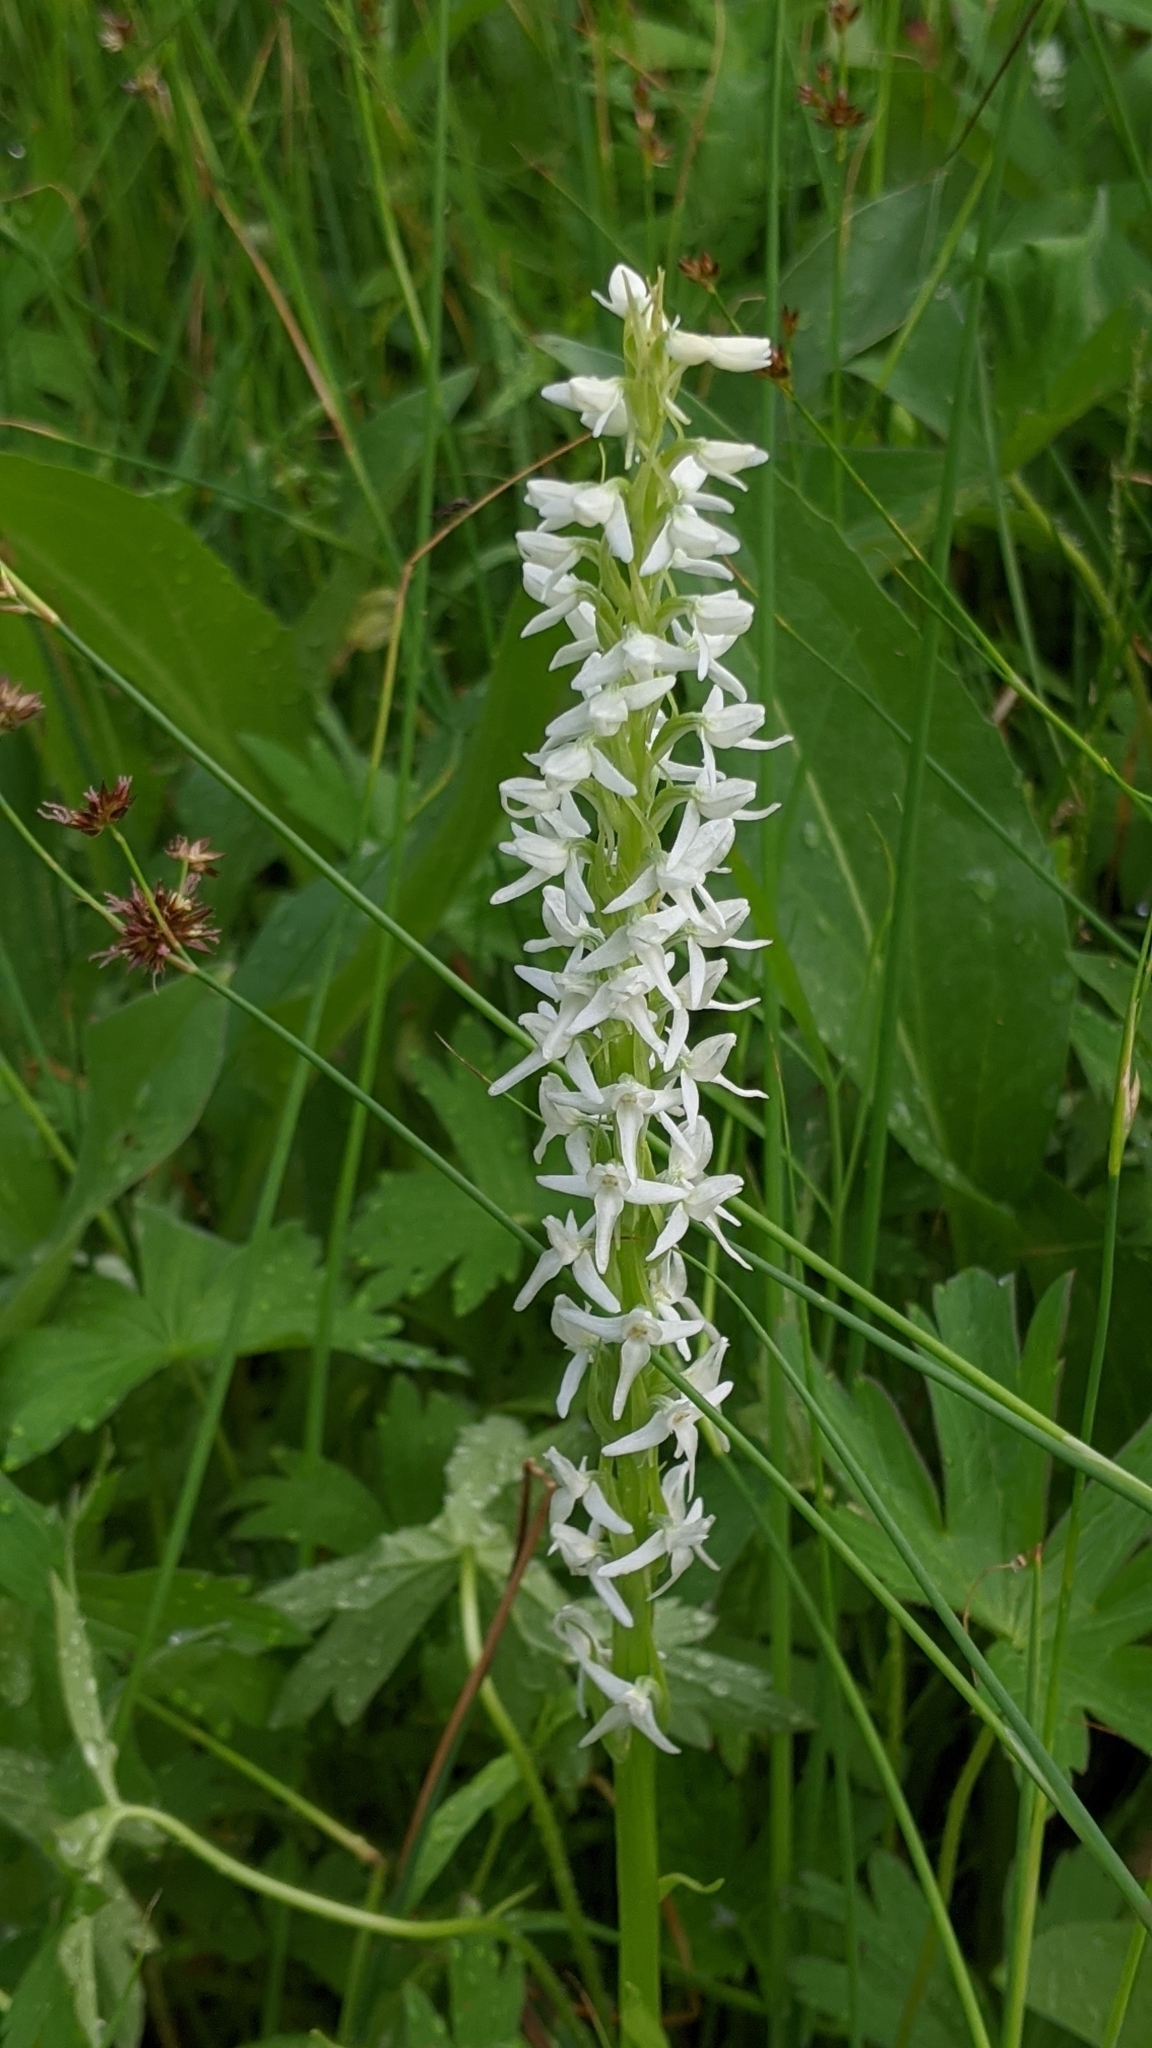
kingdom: Plantae
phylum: Tracheophyta
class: Liliopsida
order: Asparagales
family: Orchidaceae
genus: Platanthera
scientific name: Platanthera dilatata
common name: Bog candles
